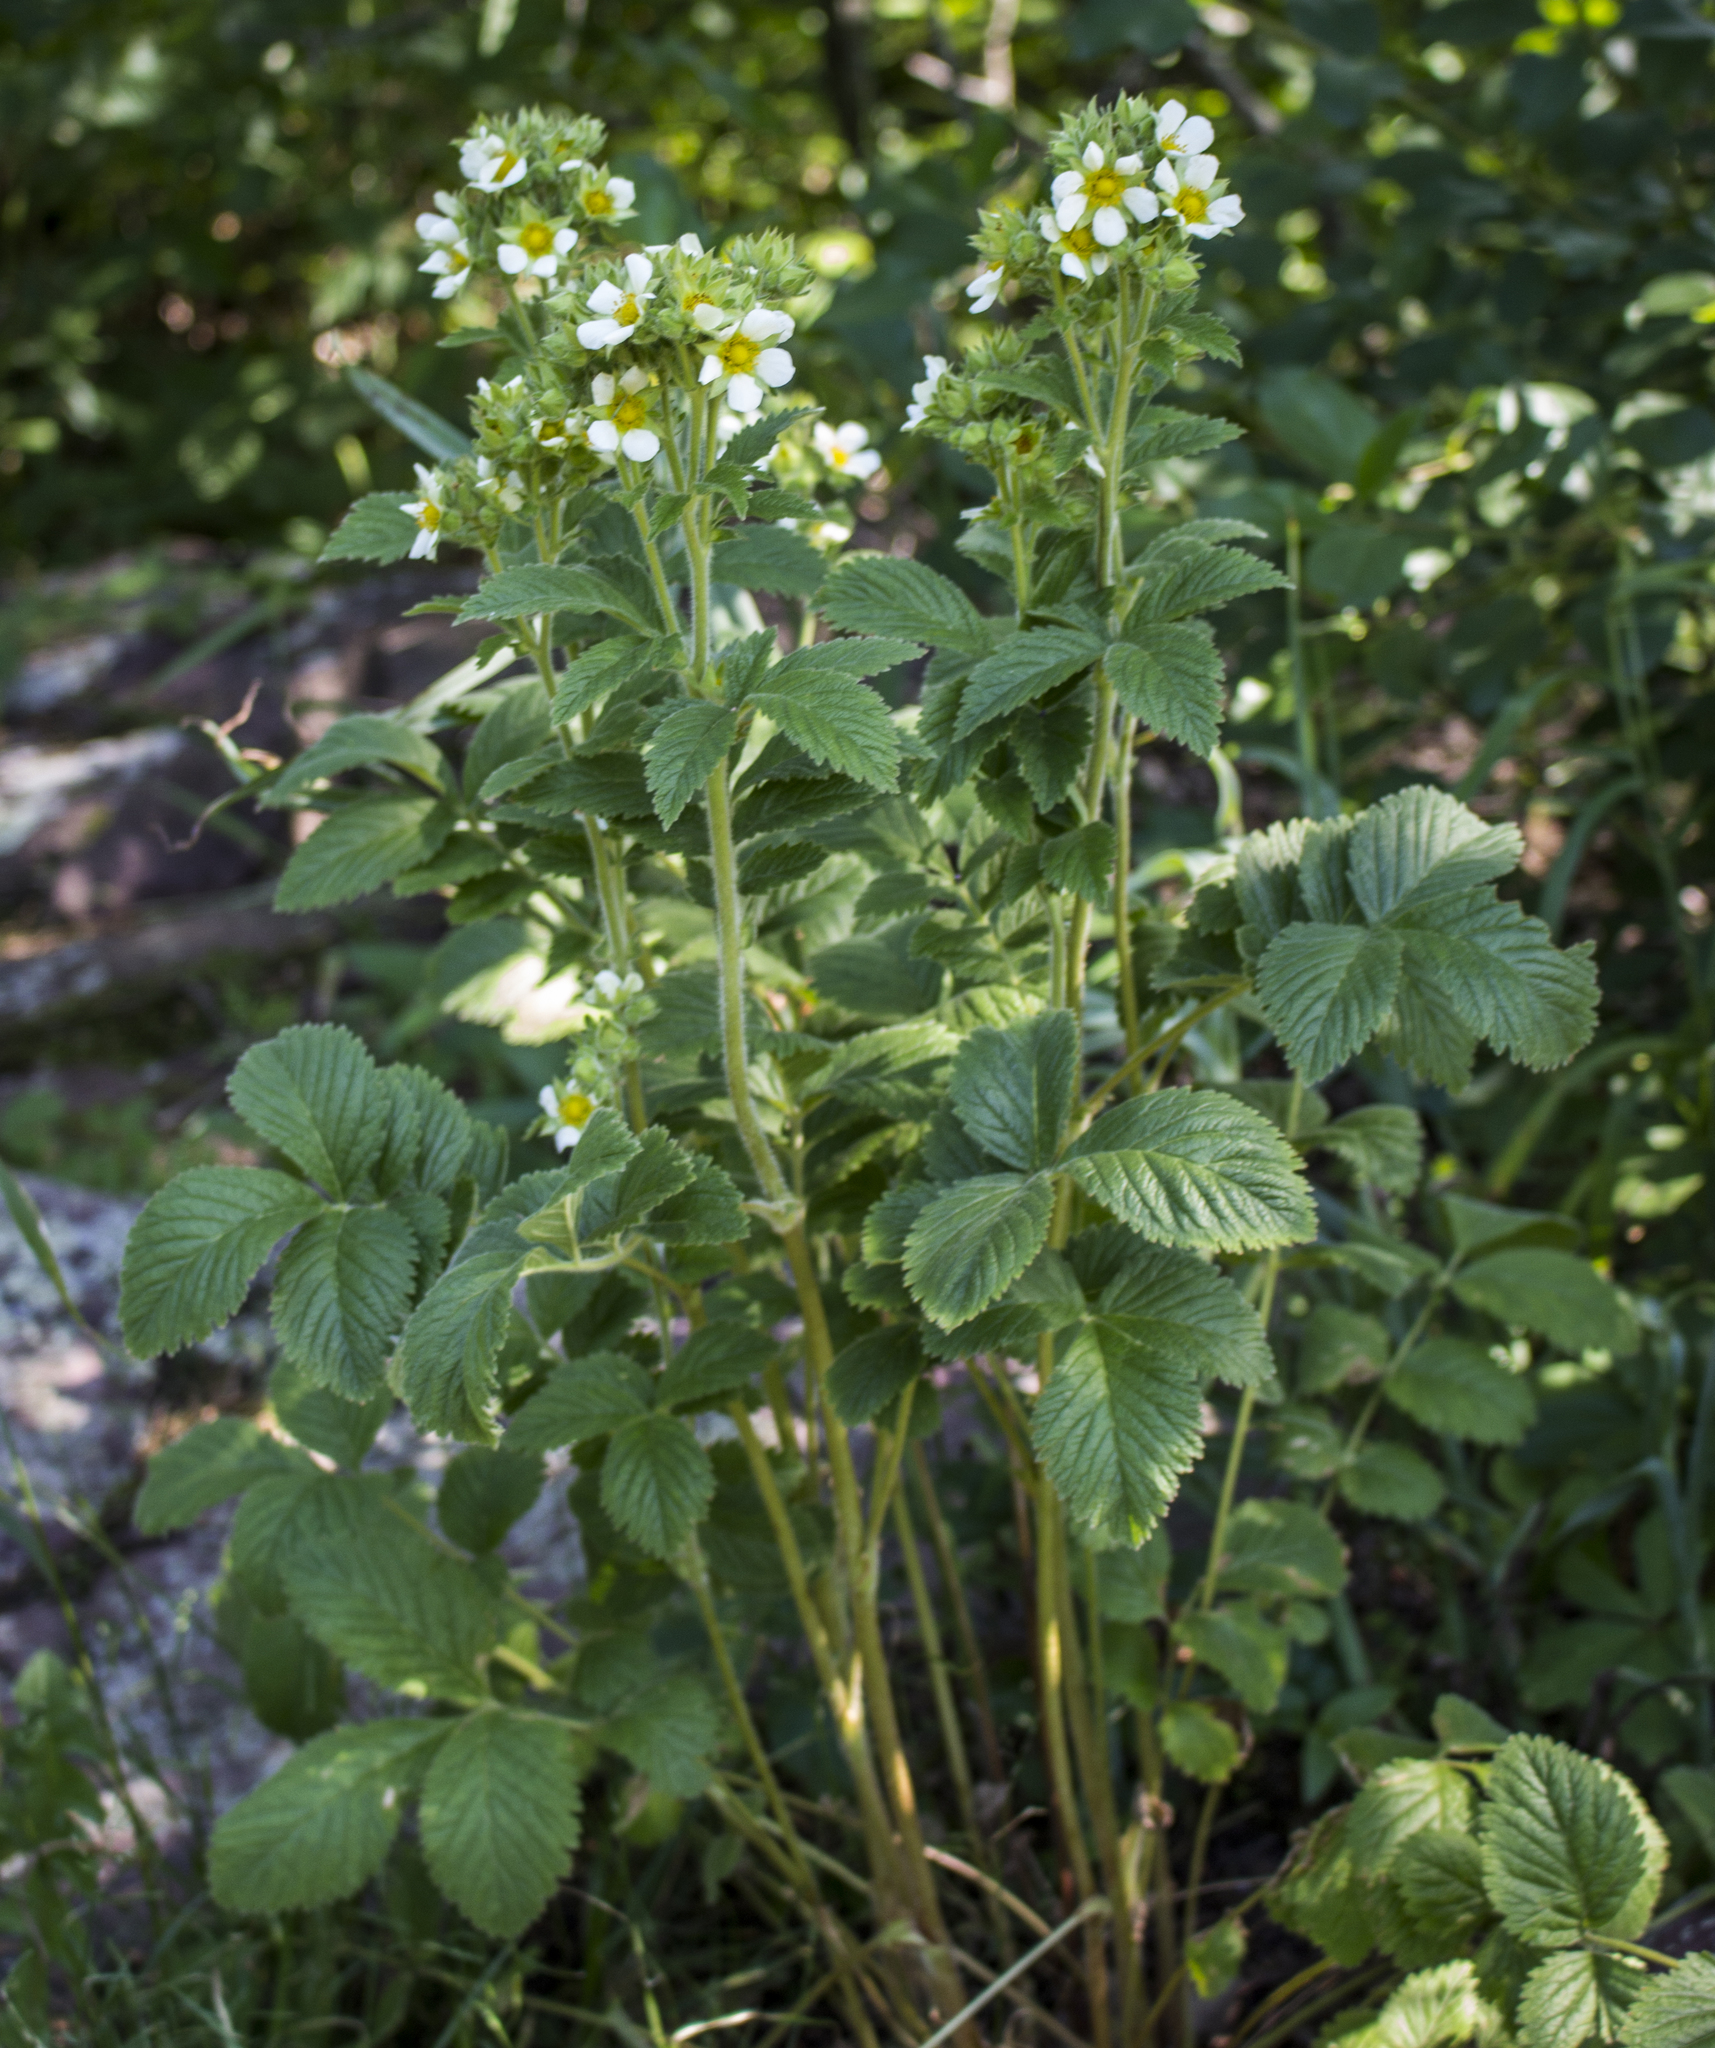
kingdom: Plantae
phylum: Tracheophyta
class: Magnoliopsida
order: Rosales
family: Rosaceae
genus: Drymocallis
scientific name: Drymocallis arguta
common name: Tall cinquefoil
